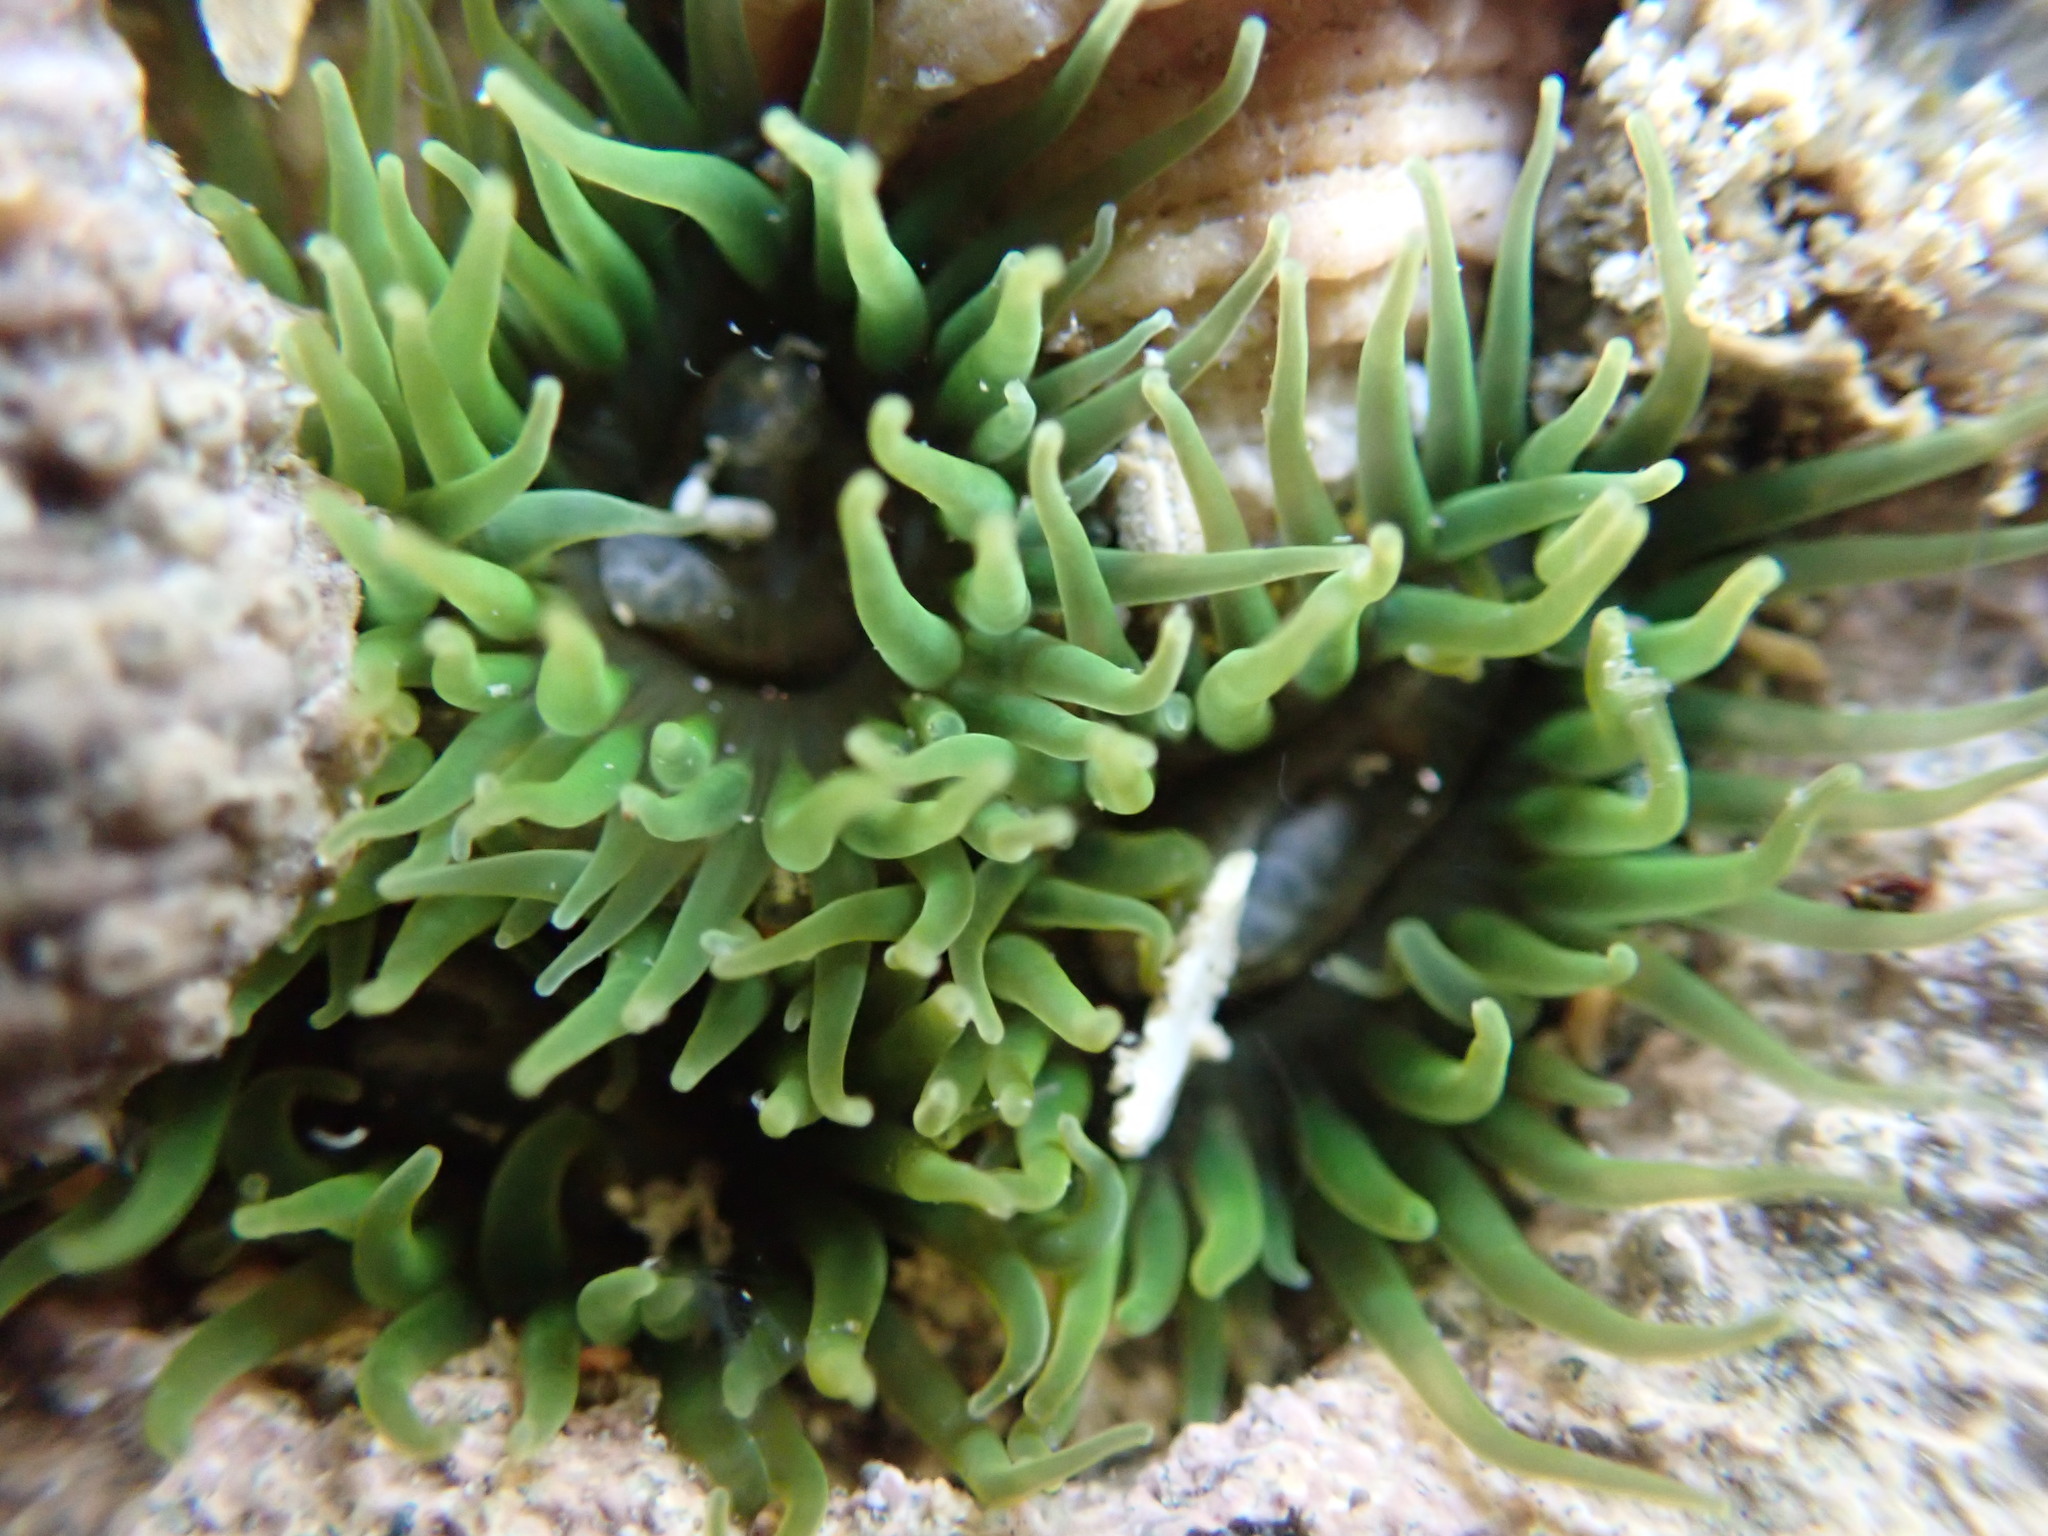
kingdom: Animalia
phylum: Cnidaria
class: Anthozoa
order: Actiniaria
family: Actiniidae
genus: Aulactinia
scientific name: Aulactinia veratra
